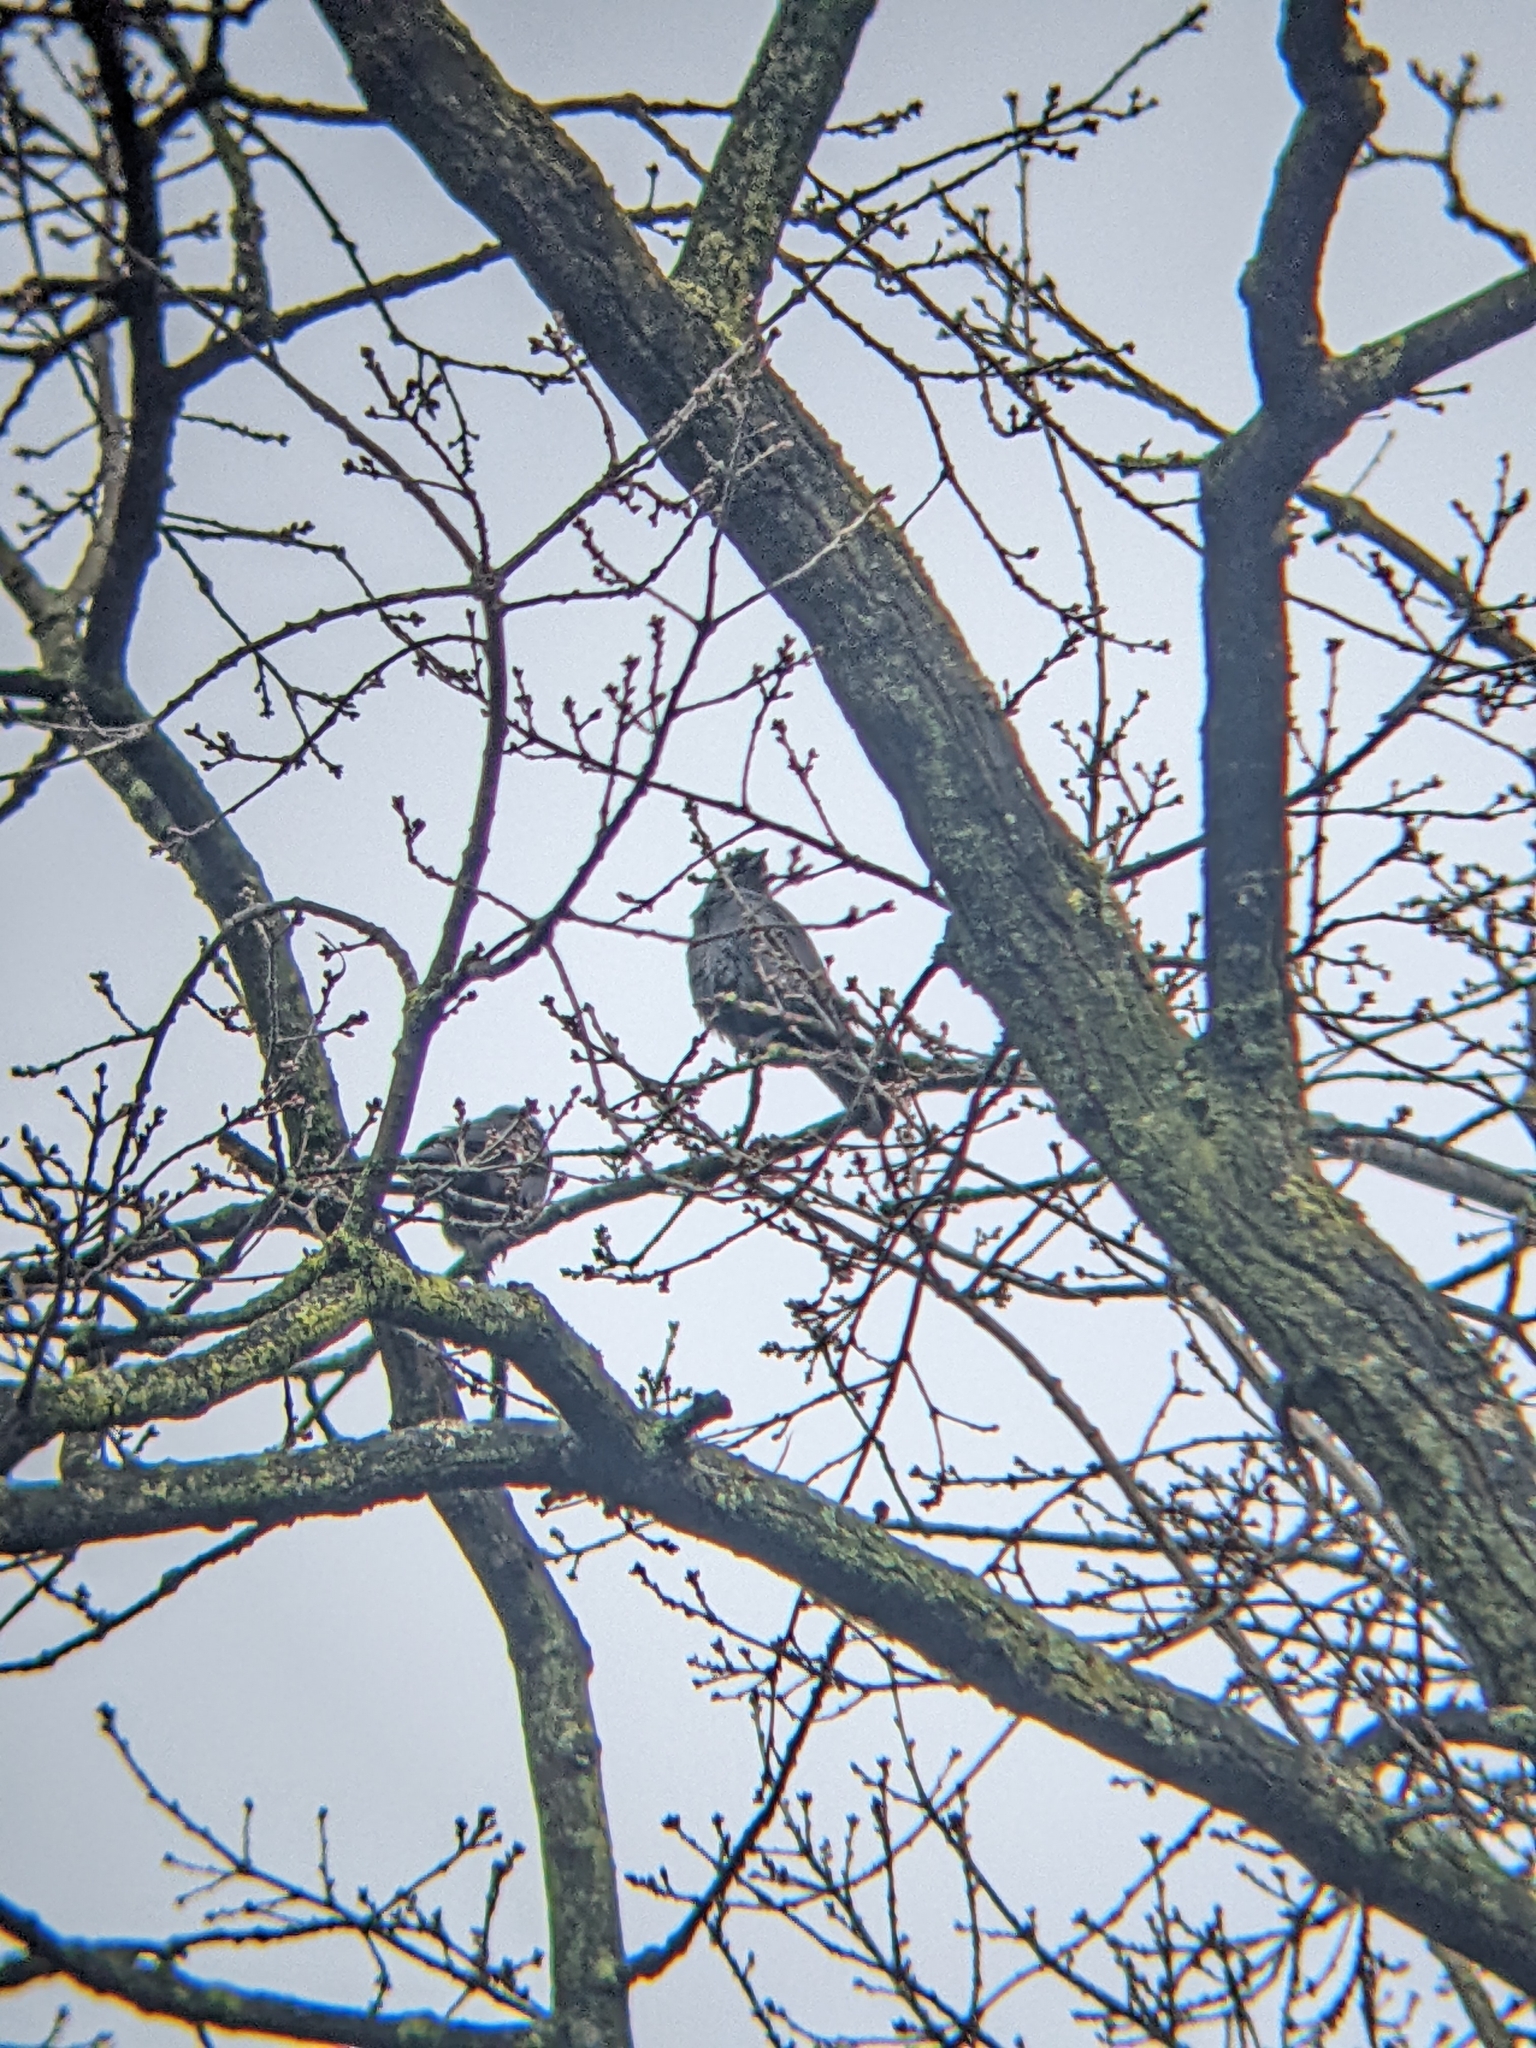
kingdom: Animalia
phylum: Chordata
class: Aves
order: Passeriformes
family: Corvidae
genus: Coloeus
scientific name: Coloeus monedula
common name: Western jackdaw
